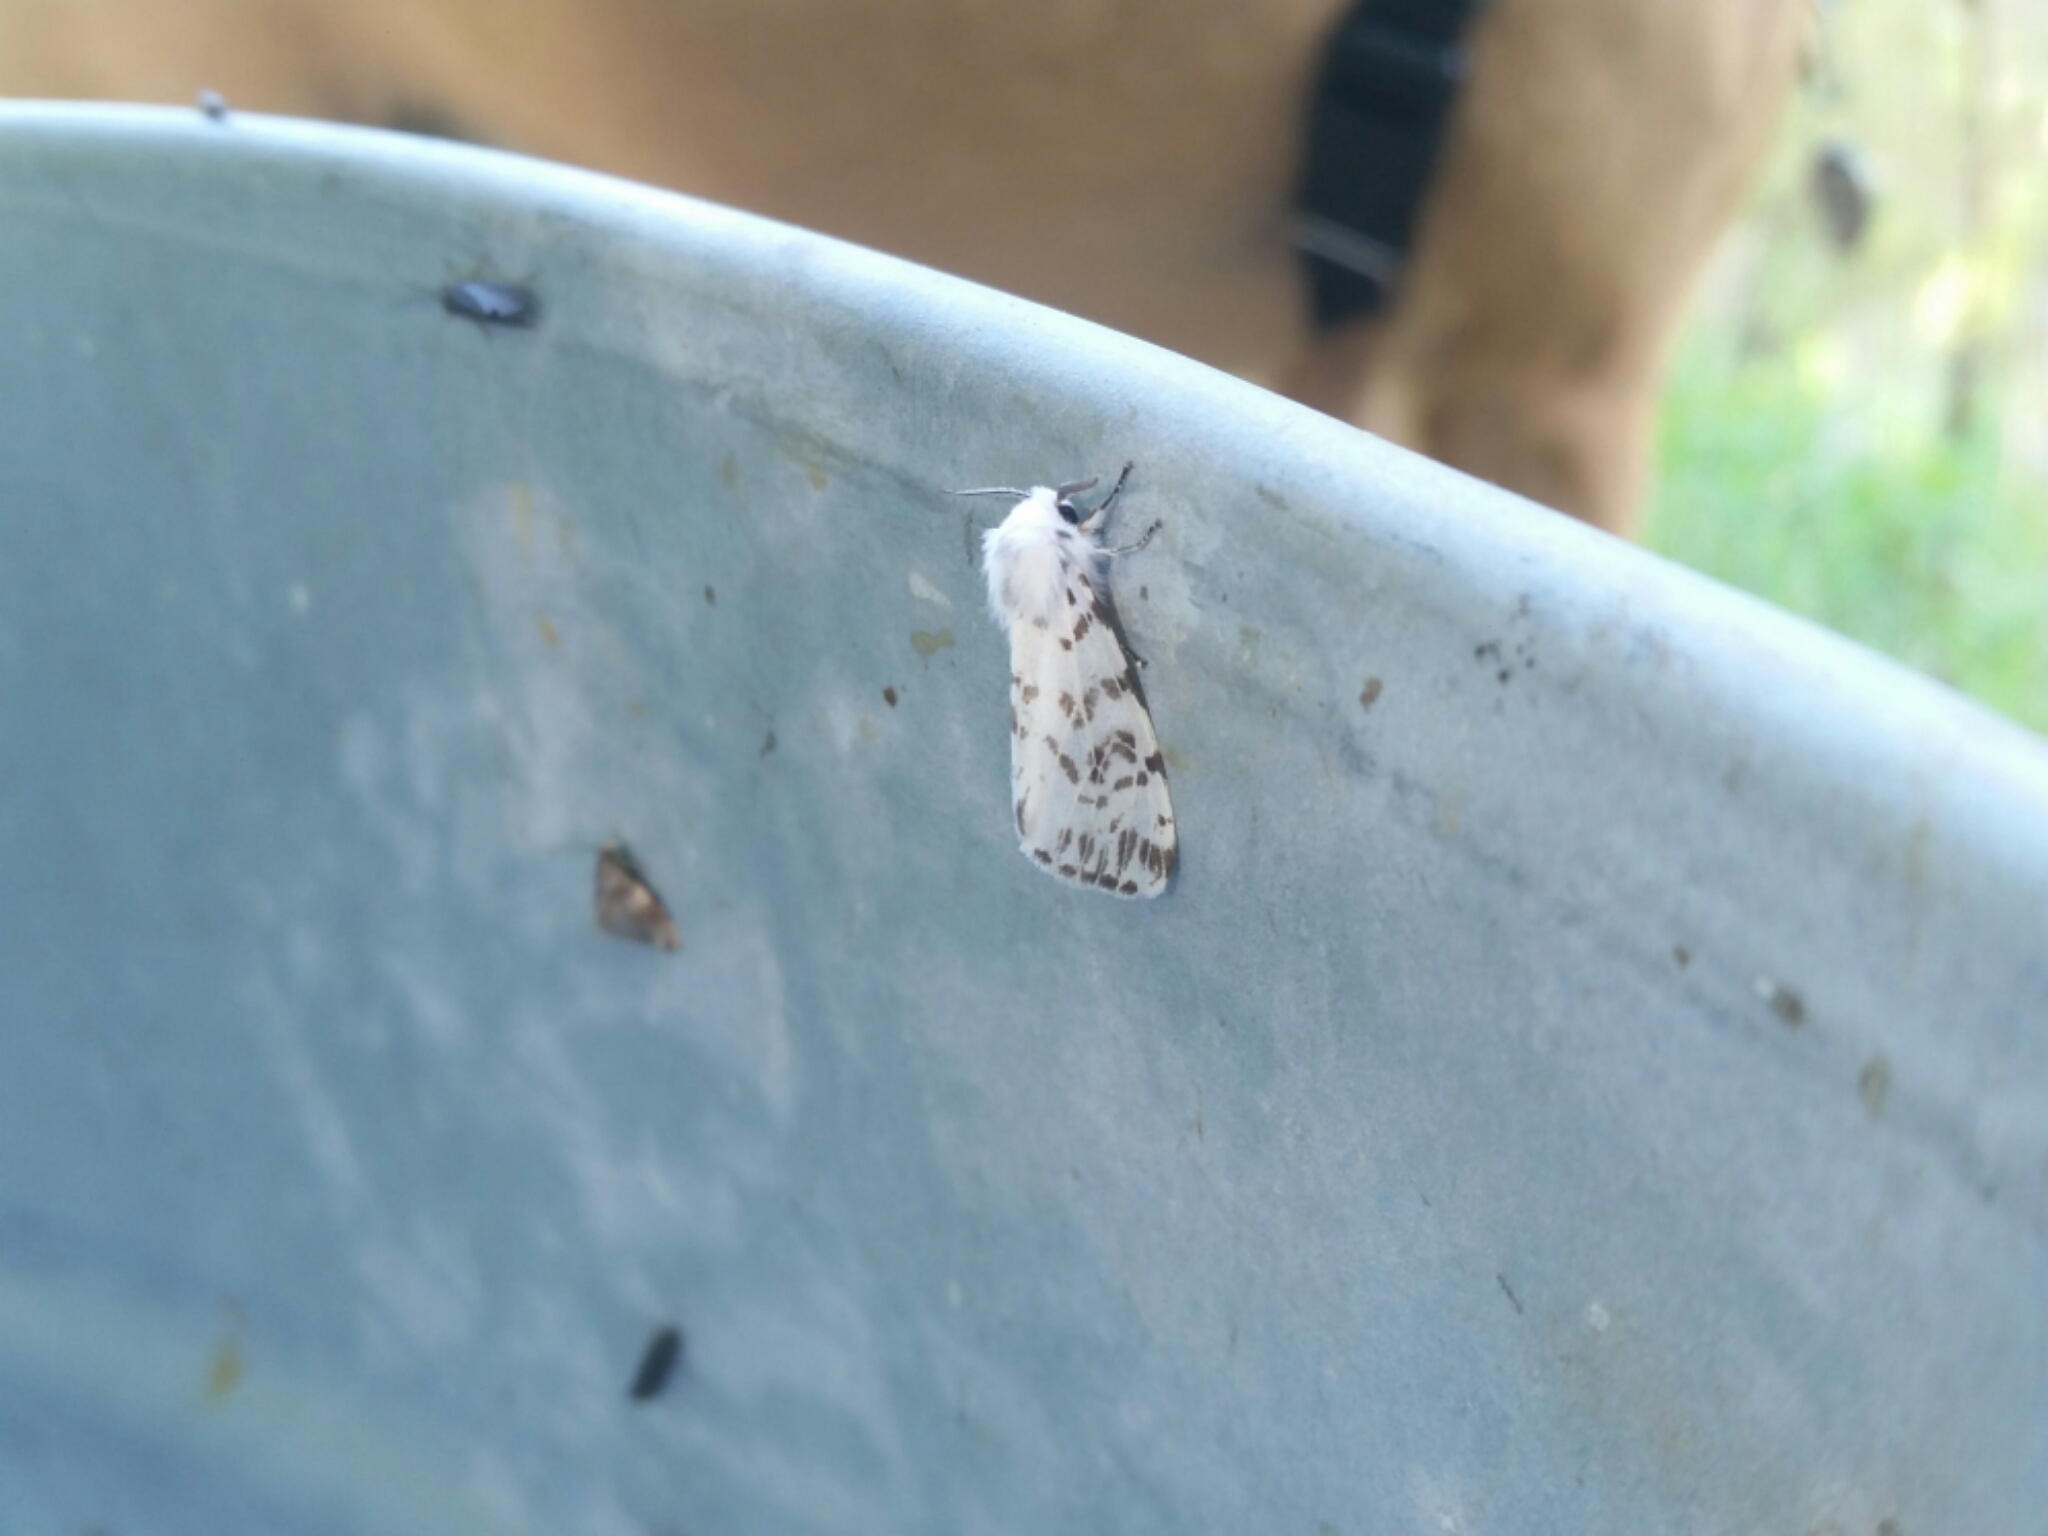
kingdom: Animalia
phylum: Arthropoda
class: Insecta
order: Lepidoptera
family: Erebidae
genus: Hyphantria
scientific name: Hyphantria cunea
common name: American white moth
